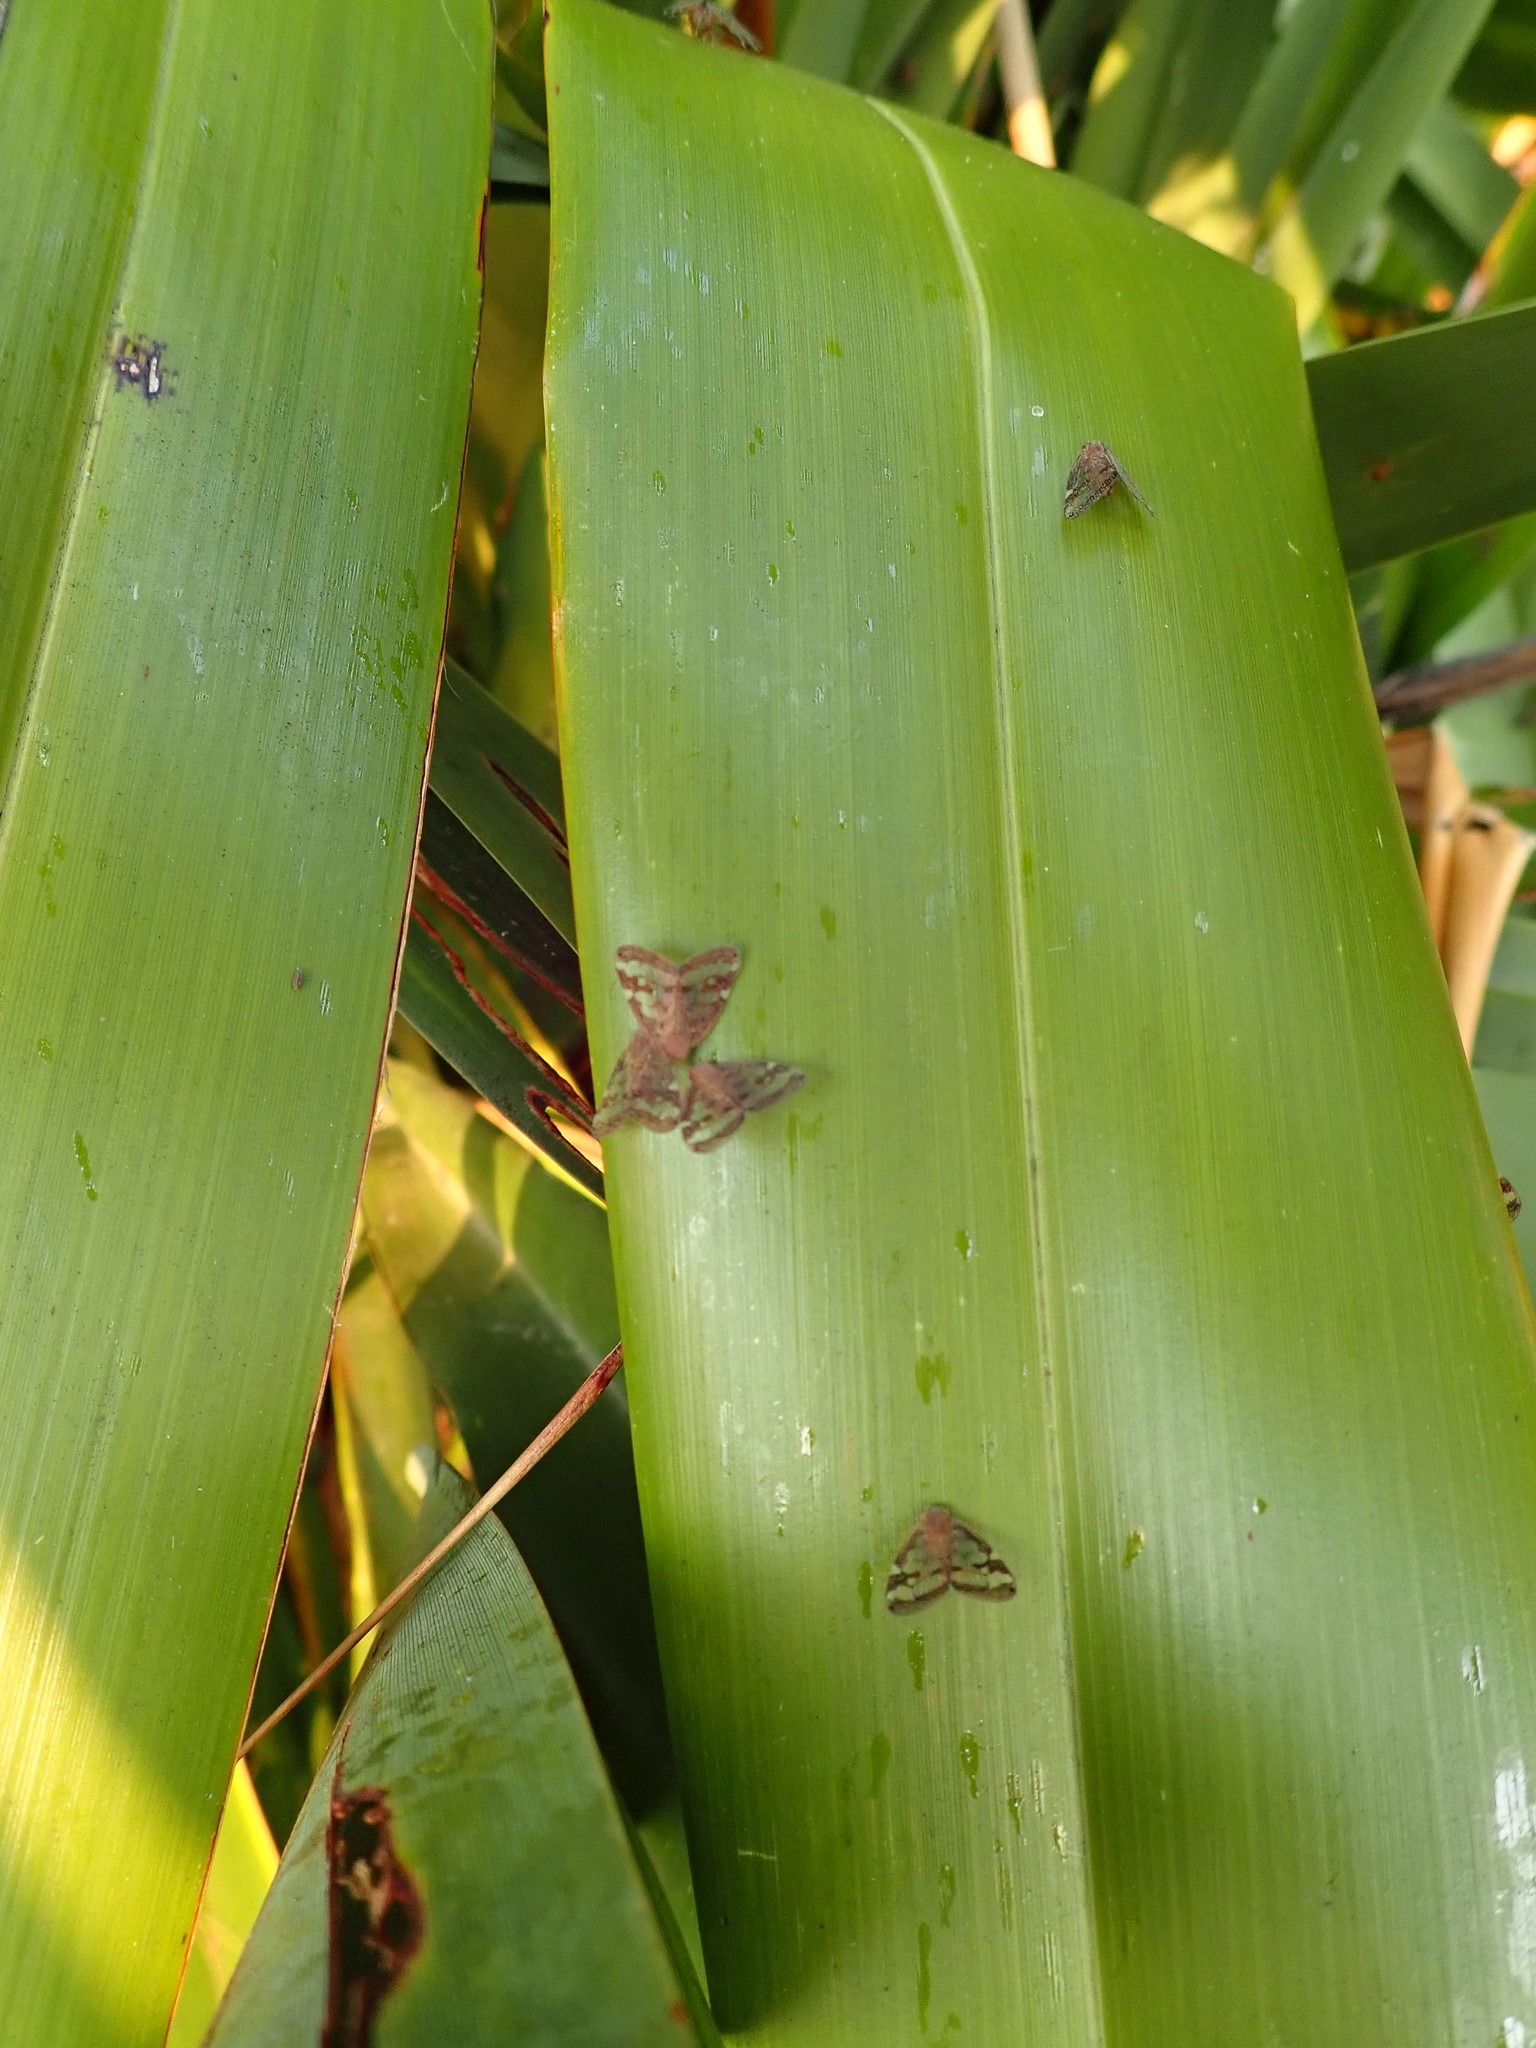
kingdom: Animalia
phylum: Arthropoda
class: Insecta
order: Hemiptera
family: Ricaniidae
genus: Scolypopa
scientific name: Scolypopa australis
